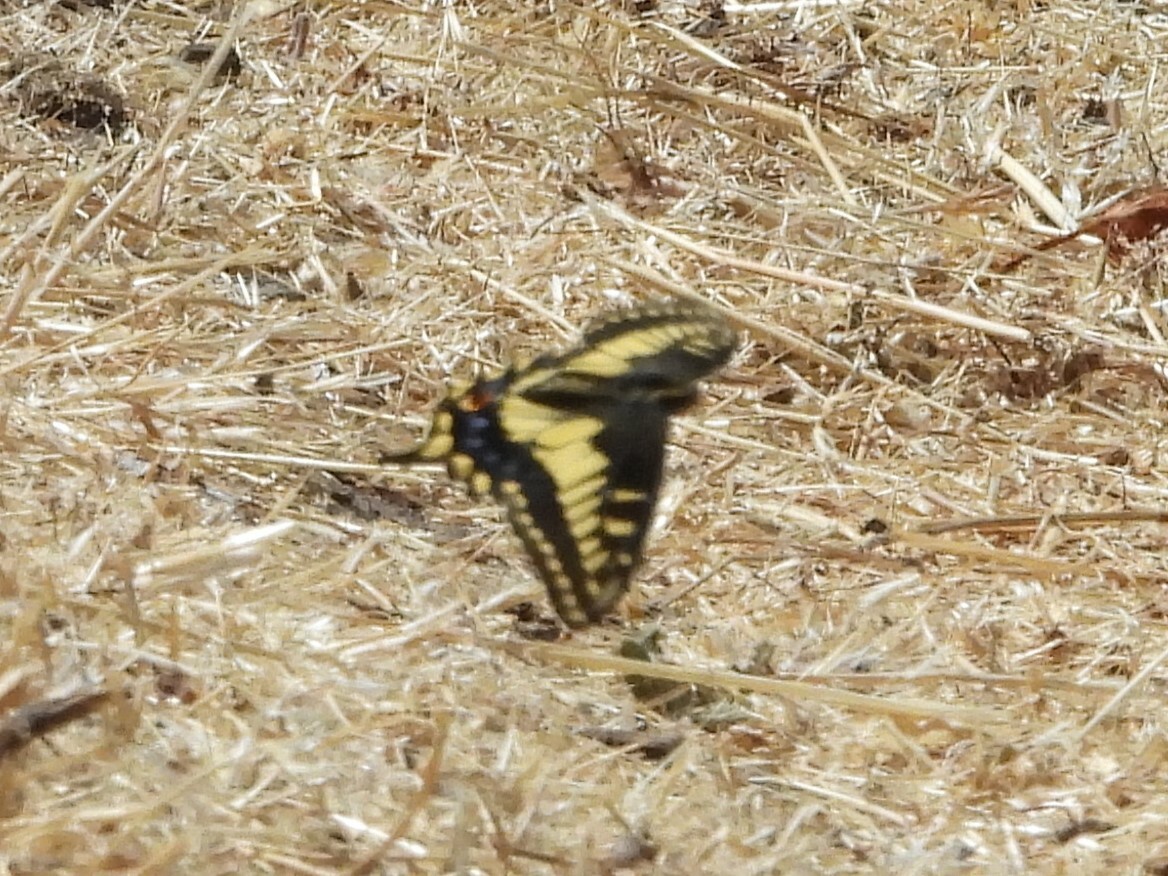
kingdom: Animalia
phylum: Arthropoda
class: Insecta
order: Lepidoptera
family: Papilionidae
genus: Papilio
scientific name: Papilio zelicaon
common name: Anise swallowtail
